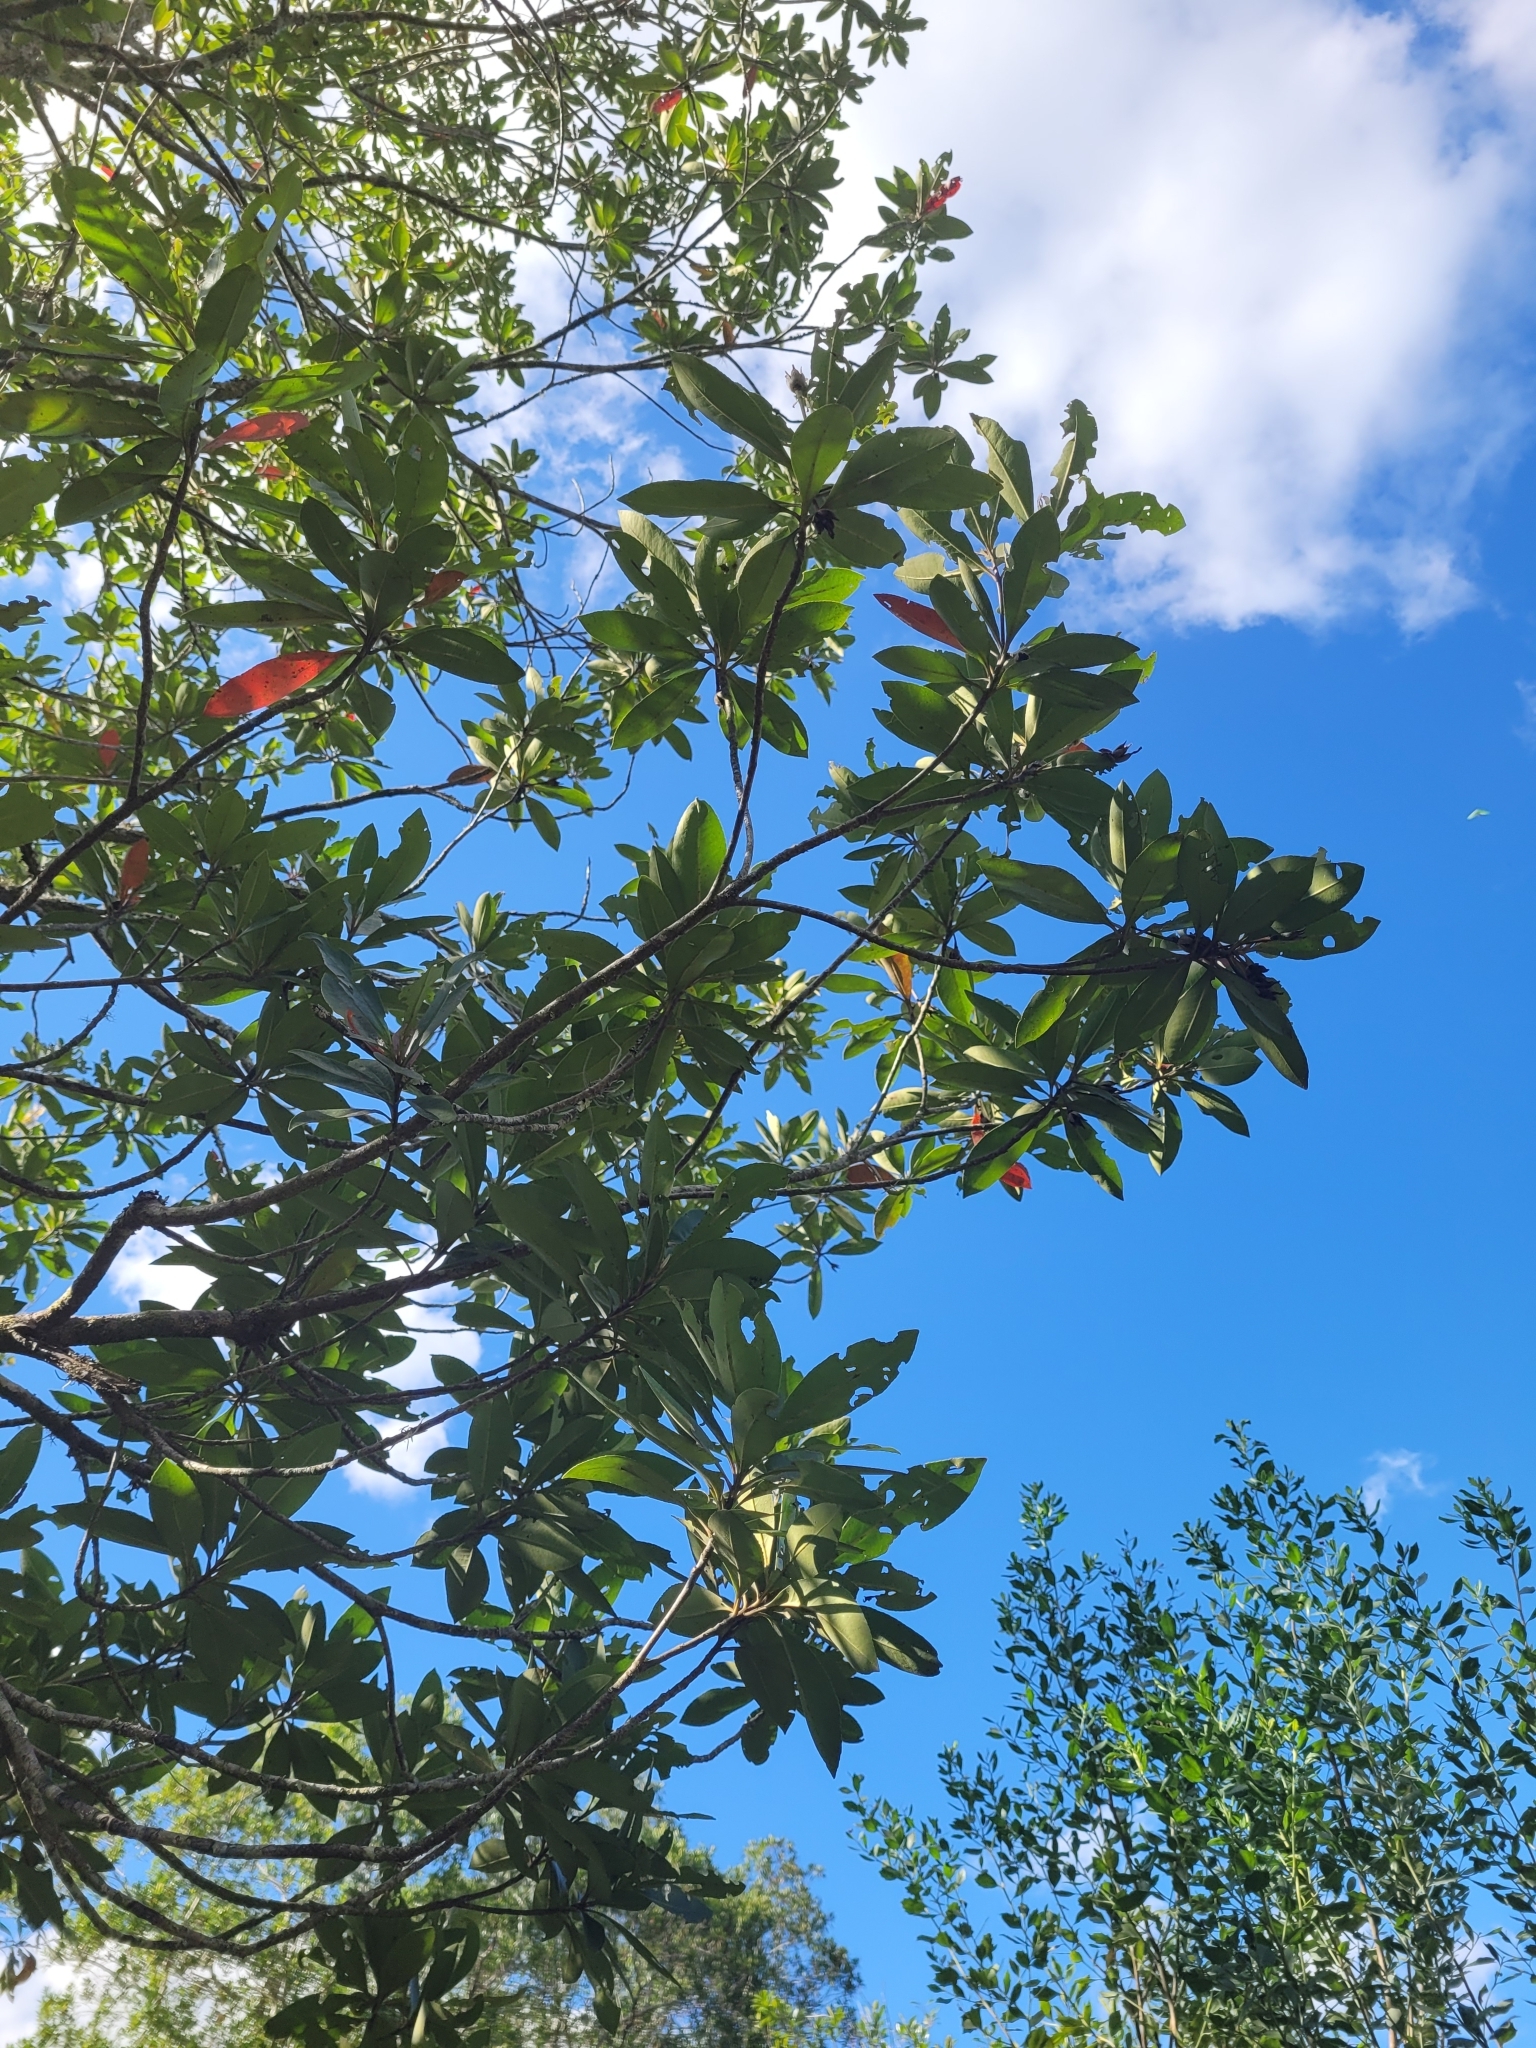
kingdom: Plantae
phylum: Tracheophyta
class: Magnoliopsida
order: Ericales
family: Theaceae
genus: Gordonia
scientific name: Gordonia lasianthus
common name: Loblolly bay
